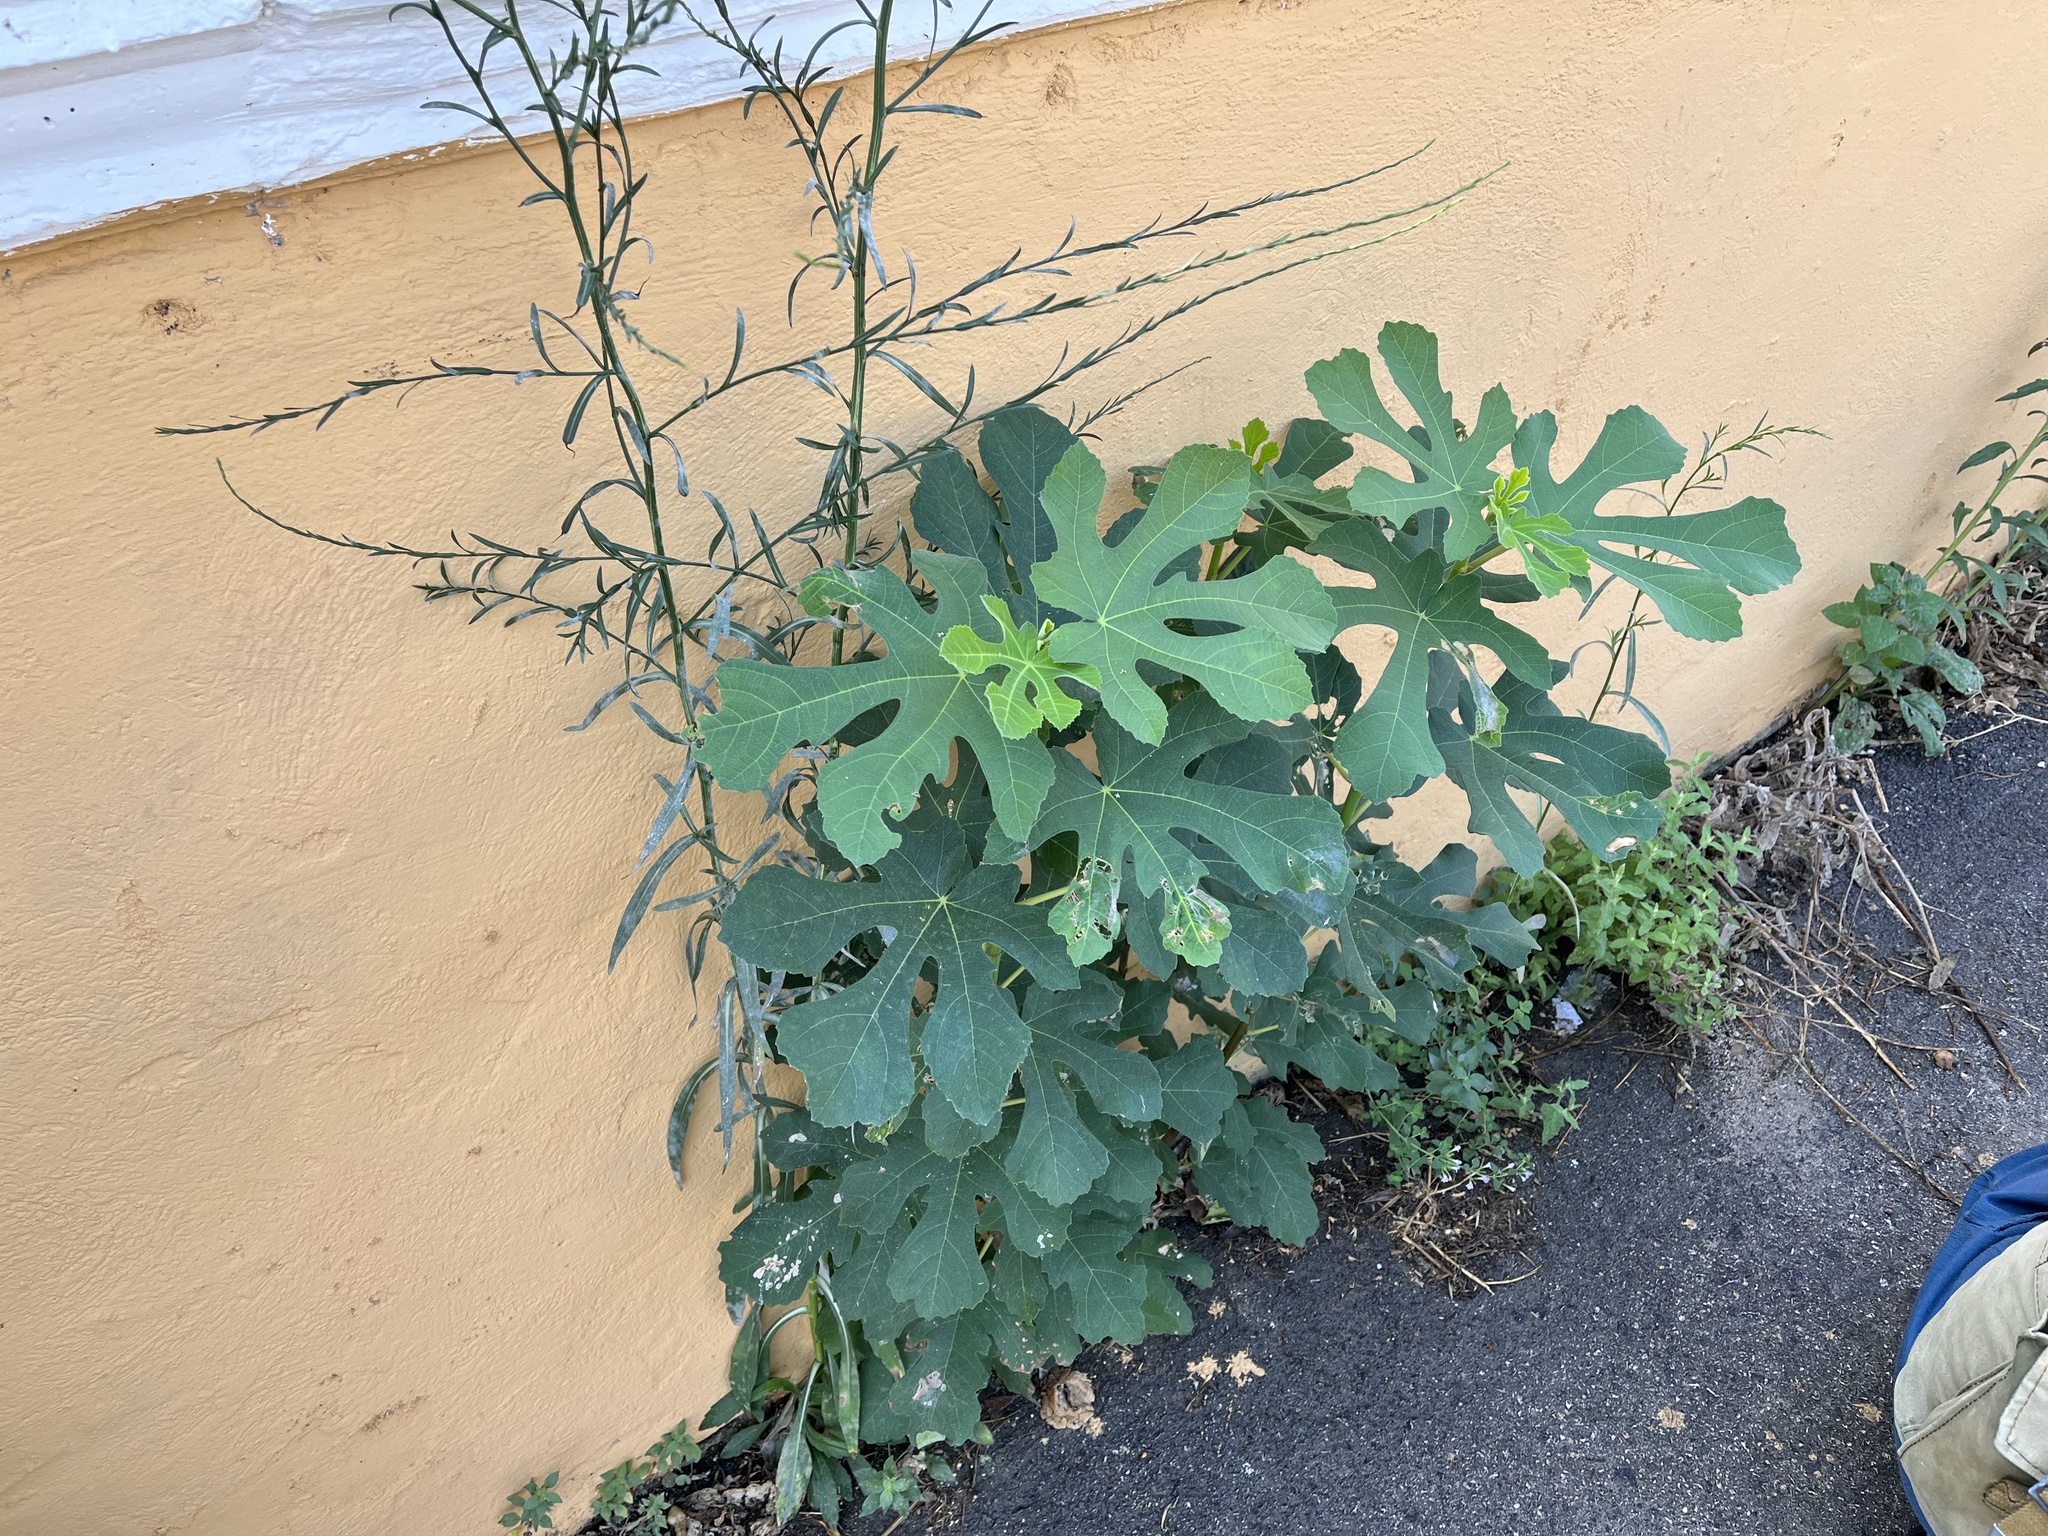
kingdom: Plantae
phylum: Tracheophyta
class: Magnoliopsida
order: Rosales
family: Moraceae
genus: Ficus
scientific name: Ficus carica
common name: Fig
